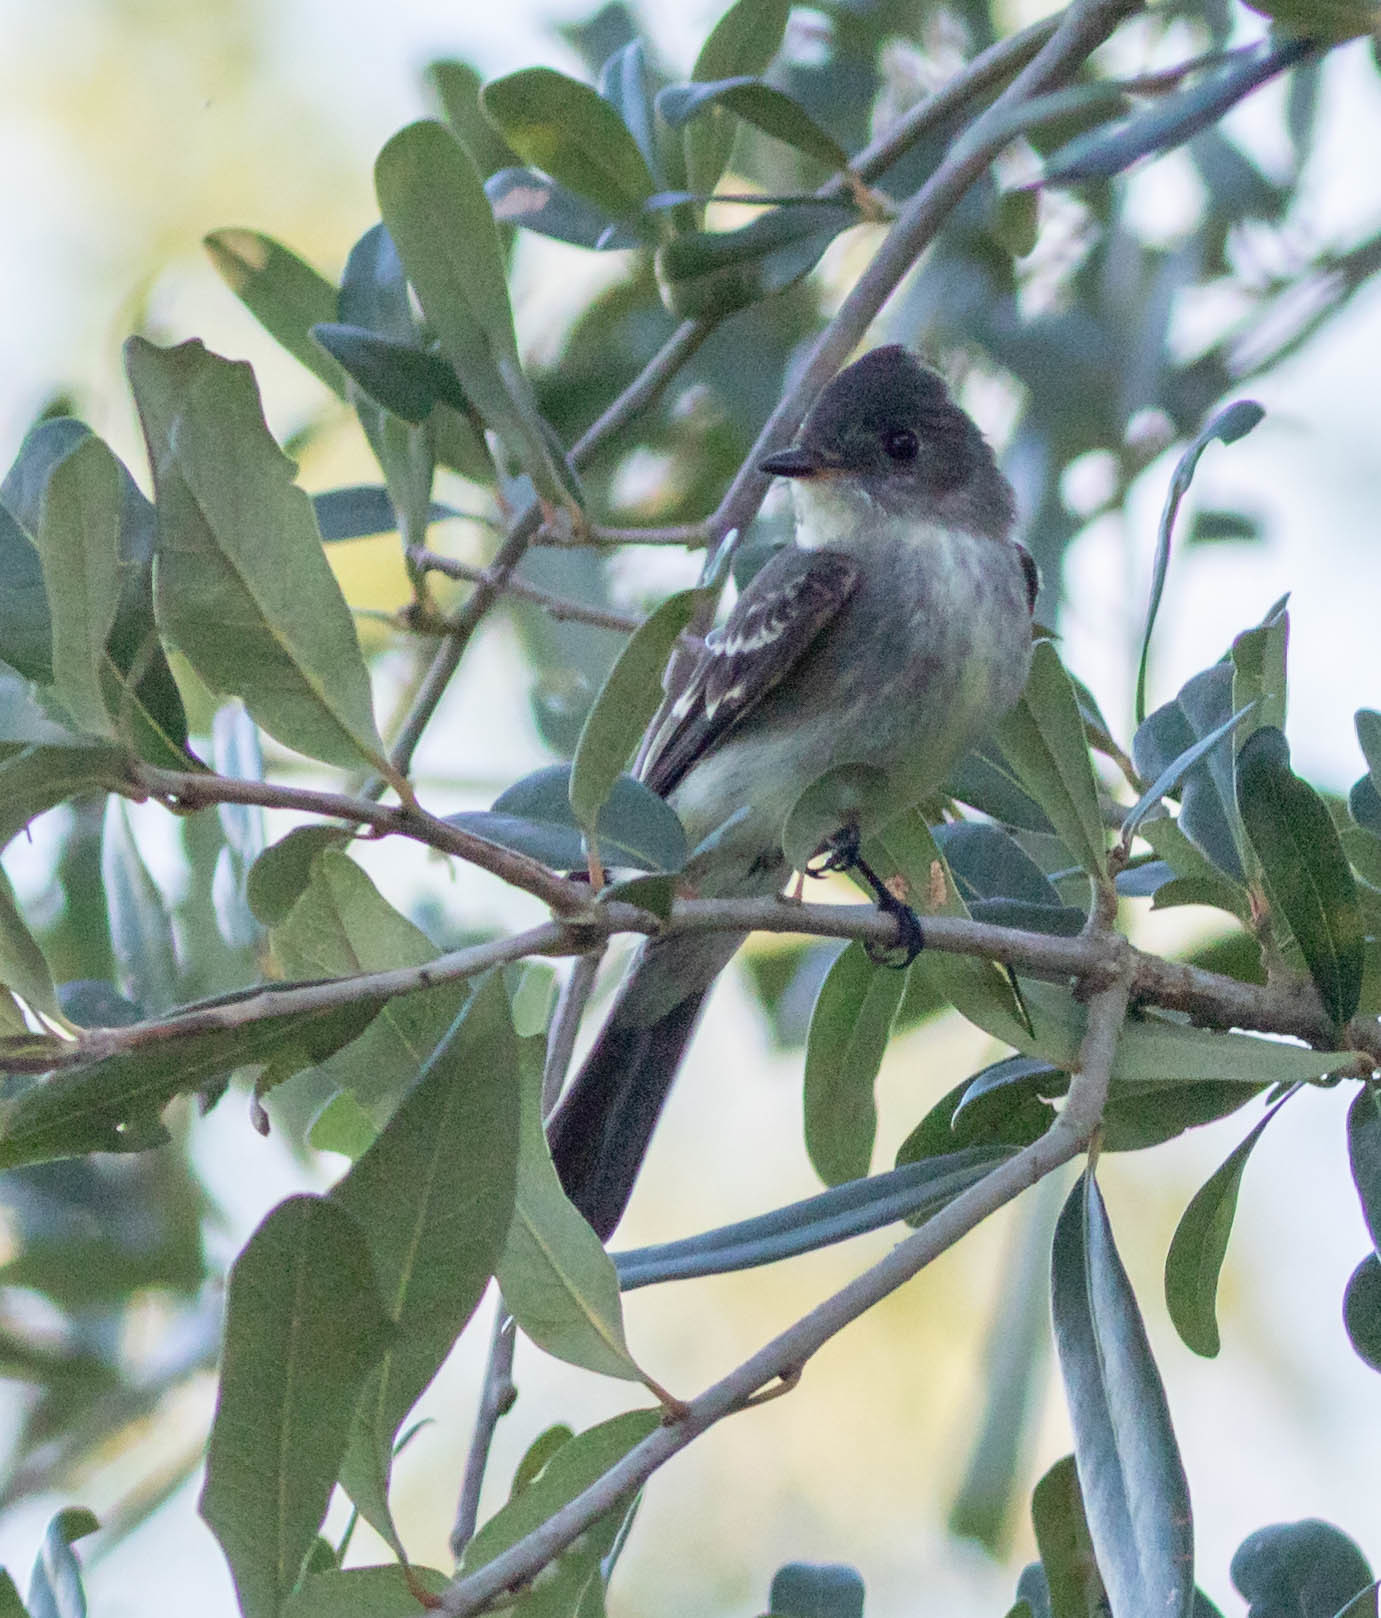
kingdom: Animalia
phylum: Chordata
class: Aves
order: Passeriformes
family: Tyrannidae
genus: Contopus
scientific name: Contopus virens
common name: Eastern wood-pewee
